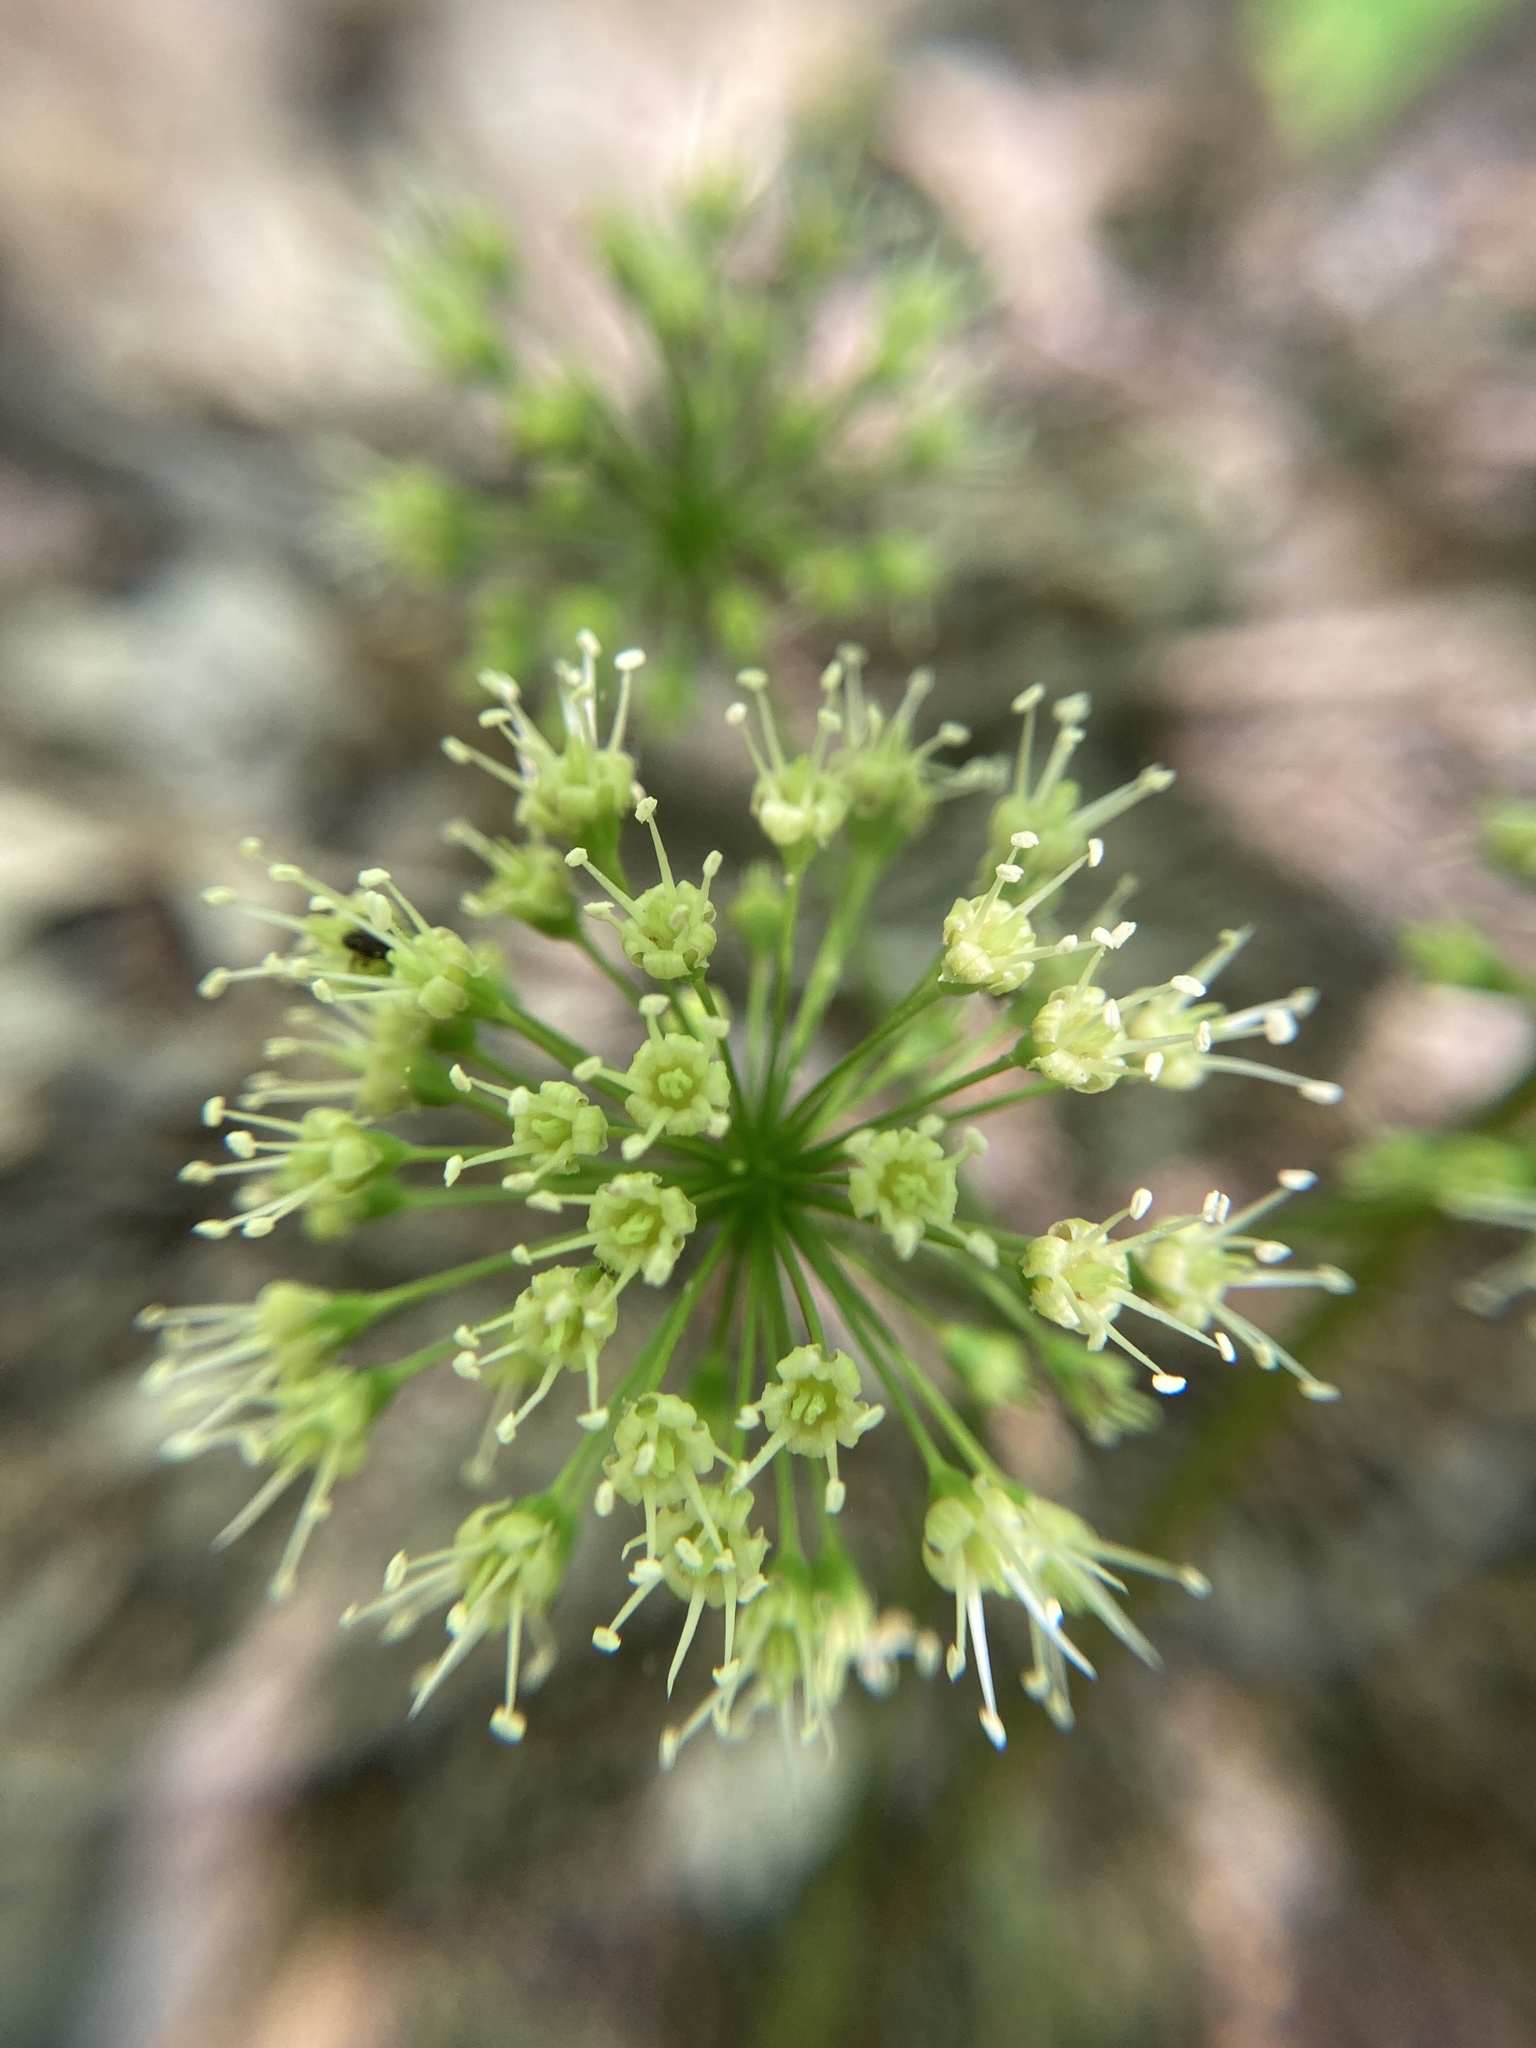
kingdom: Plantae
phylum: Tracheophyta
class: Magnoliopsida
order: Apiales
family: Araliaceae
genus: Aralia
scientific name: Aralia nudicaulis
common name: Wild sarsaparilla
